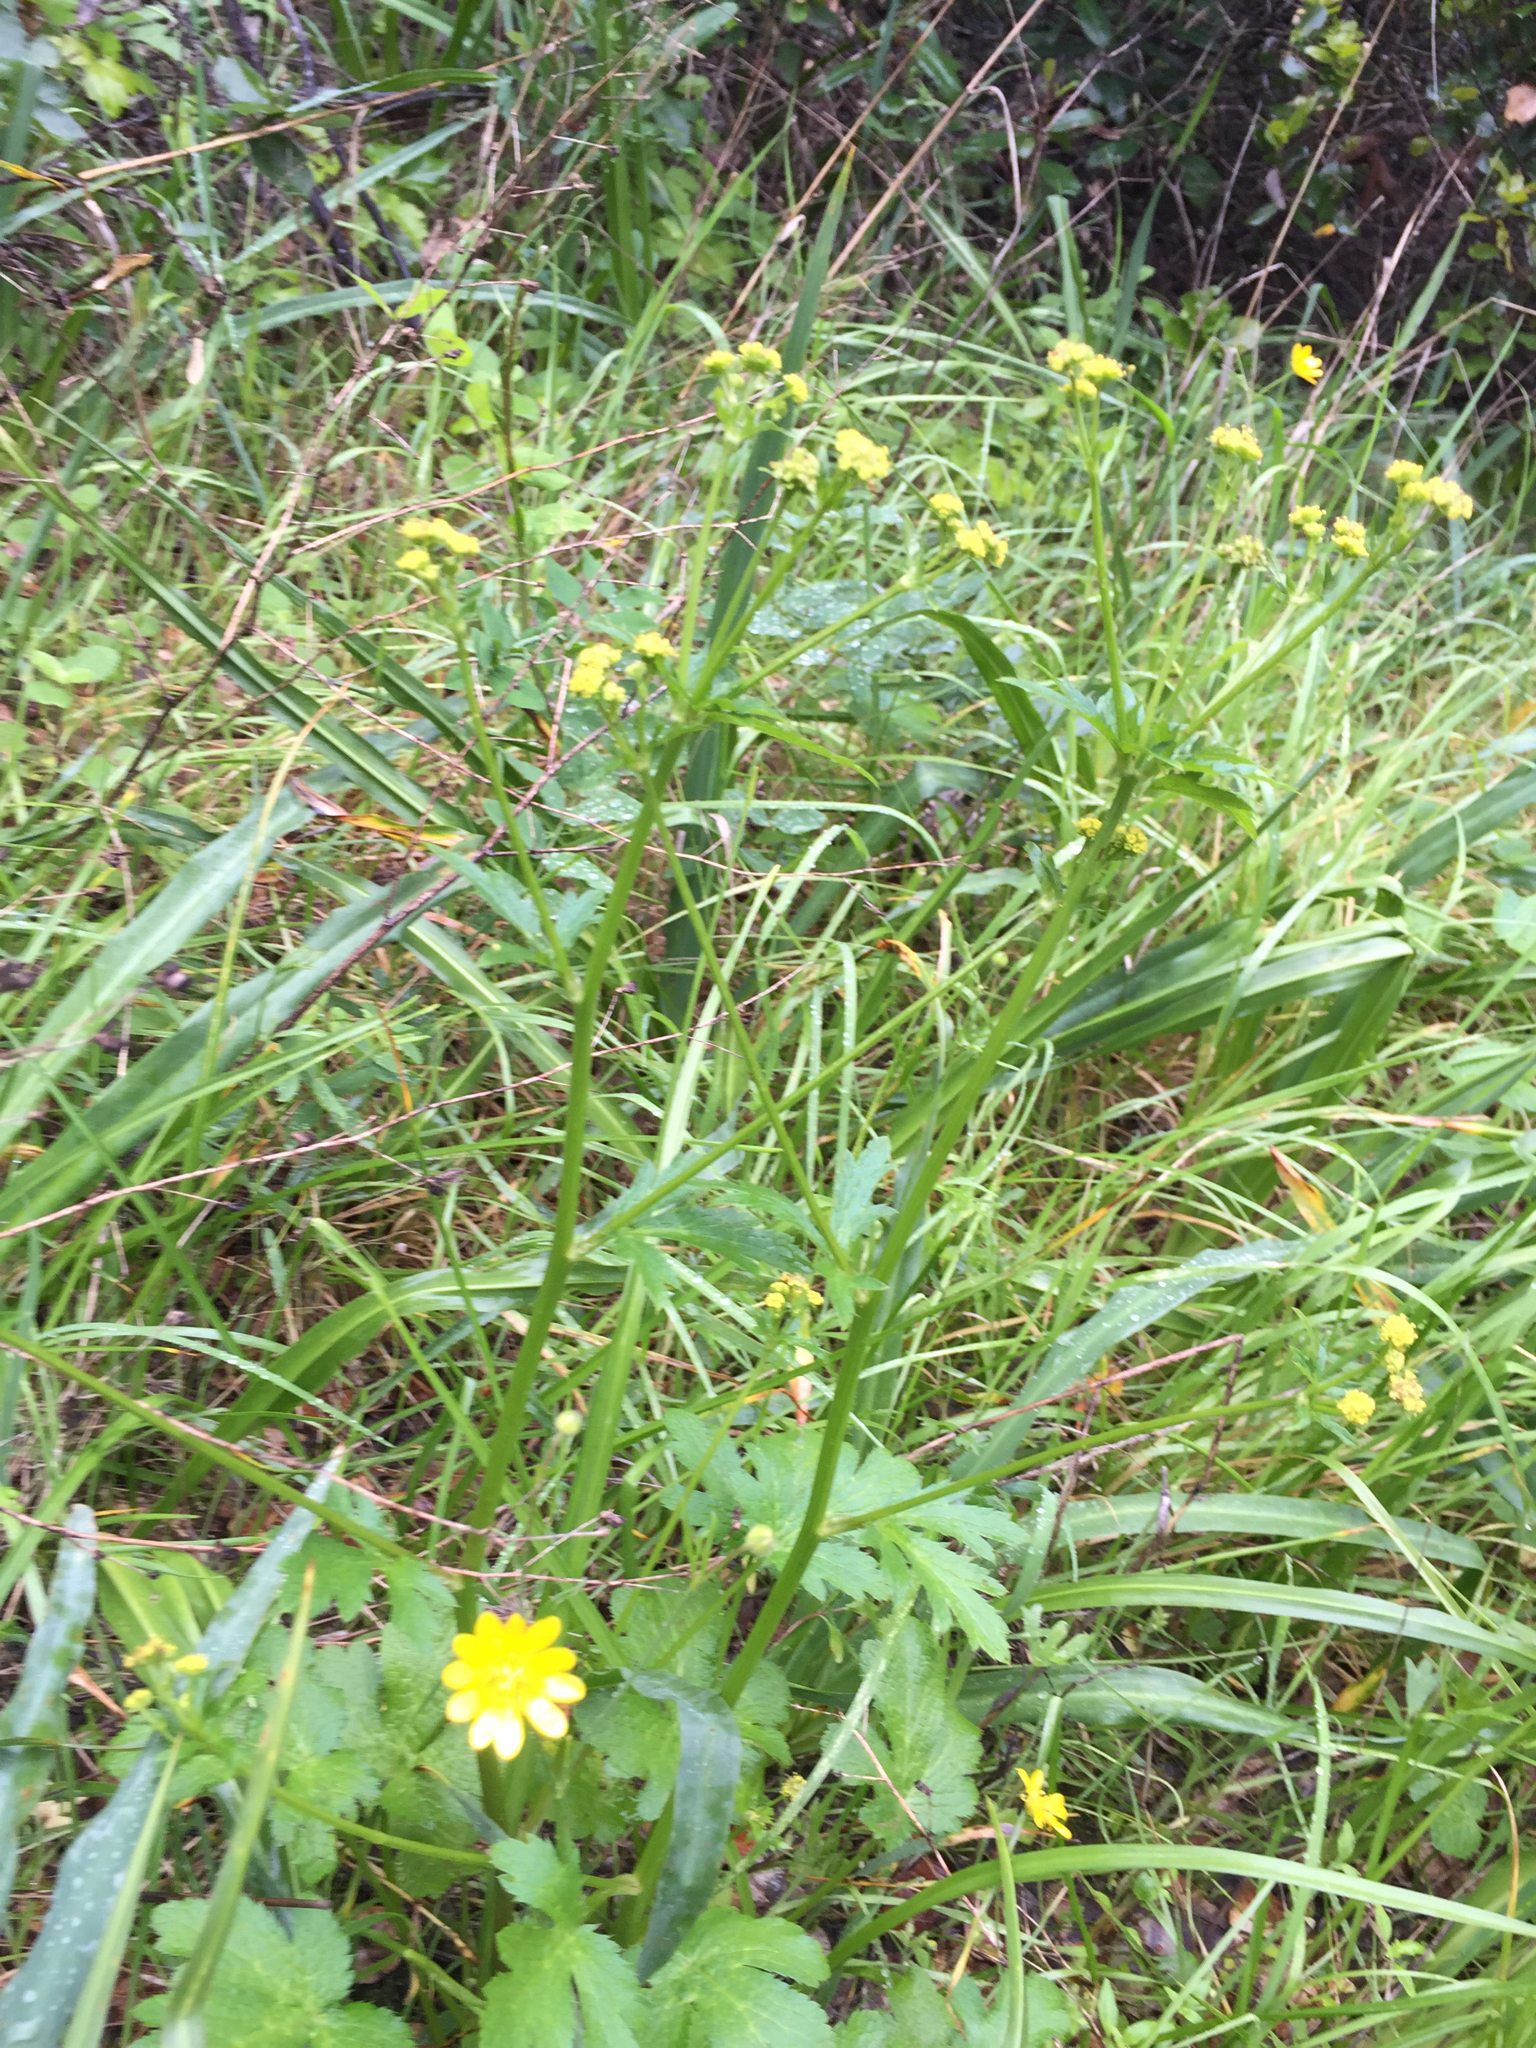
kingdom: Plantae
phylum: Tracheophyta
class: Magnoliopsida
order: Apiales
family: Apiaceae
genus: Sanicula
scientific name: Sanicula crassicaulis
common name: Western snakeroot
